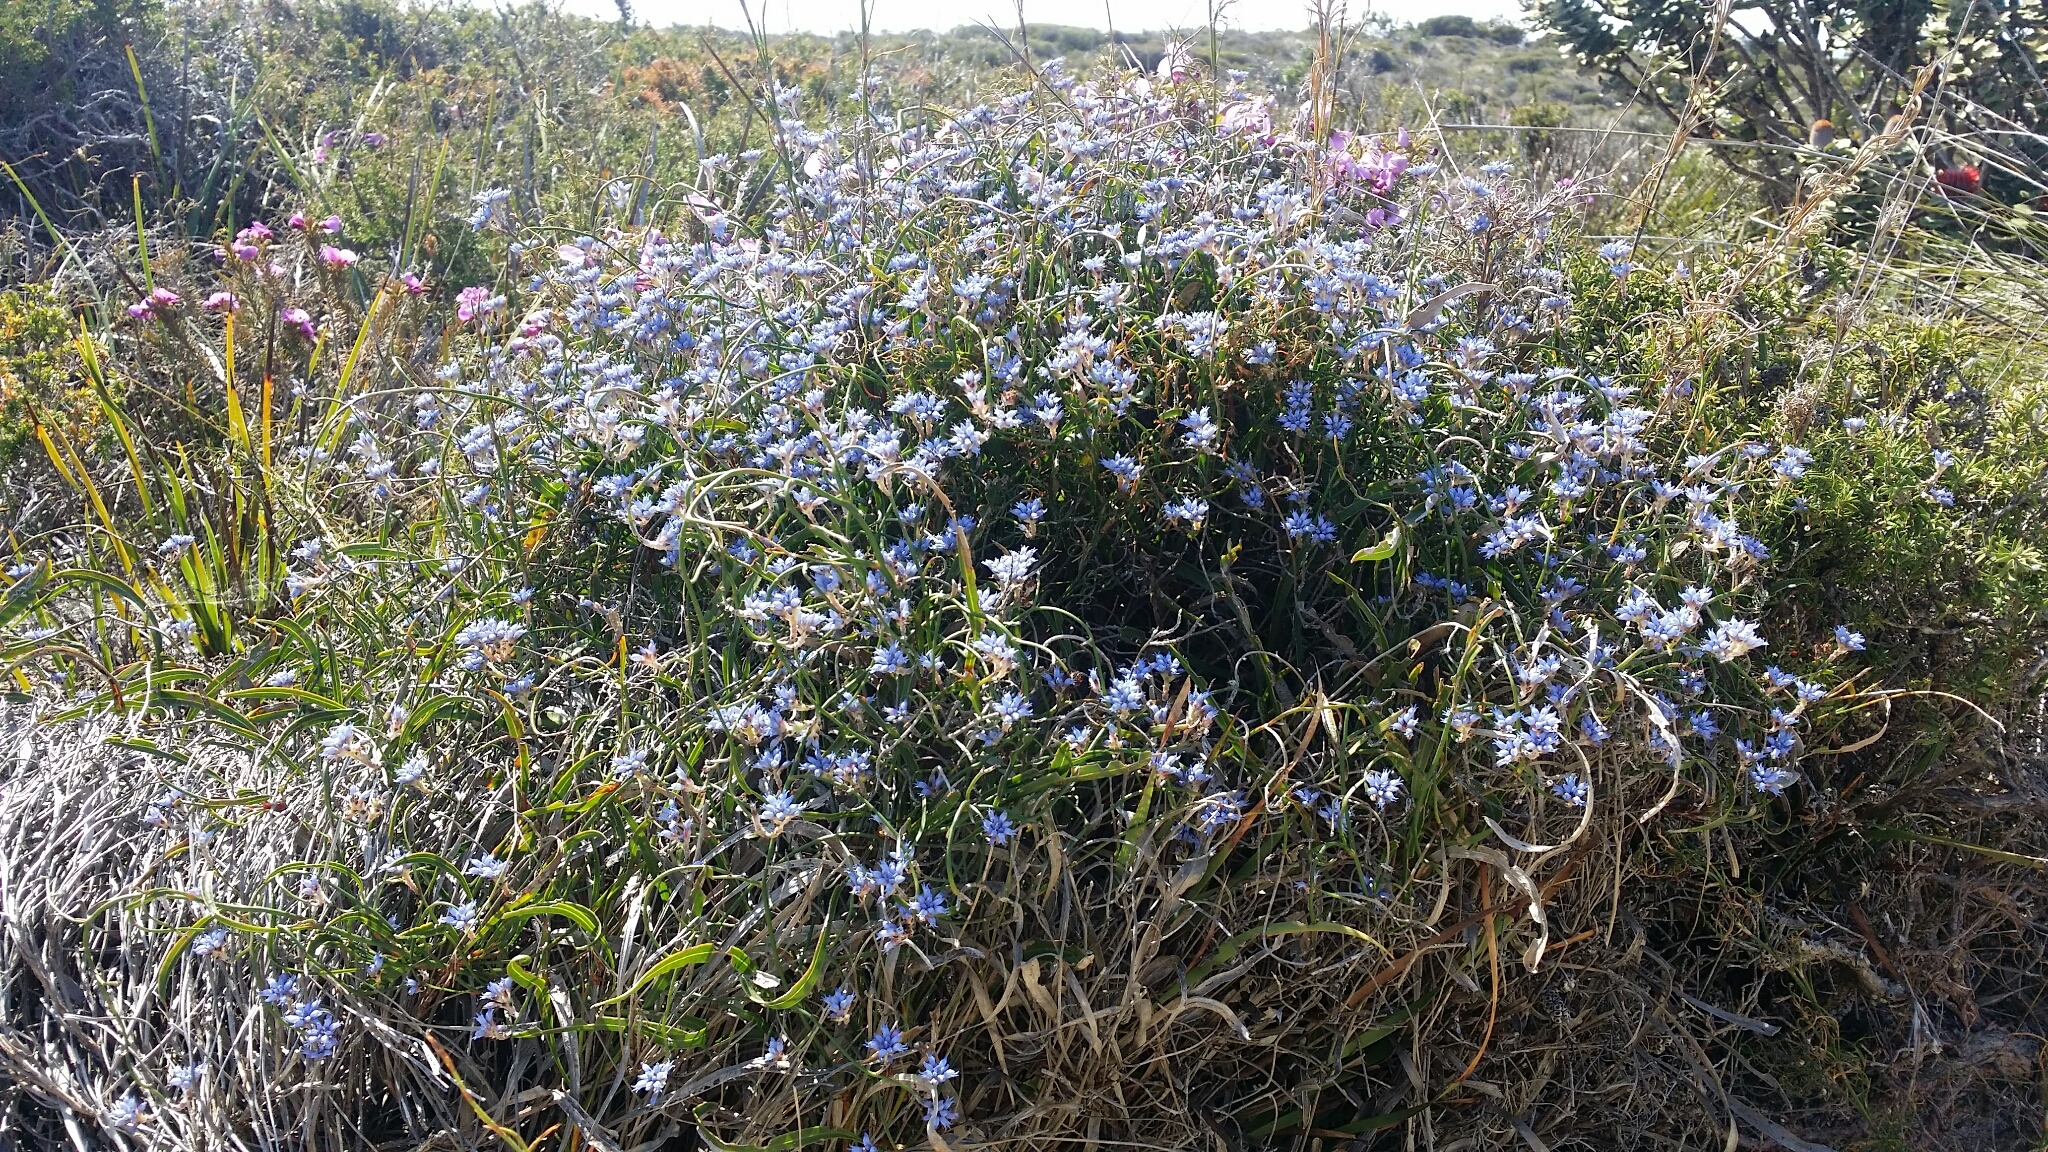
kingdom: Plantae
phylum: Tracheophyta
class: Magnoliopsida
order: Proteales
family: Proteaceae
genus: Conospermum
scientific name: Conospermum caeruleum
